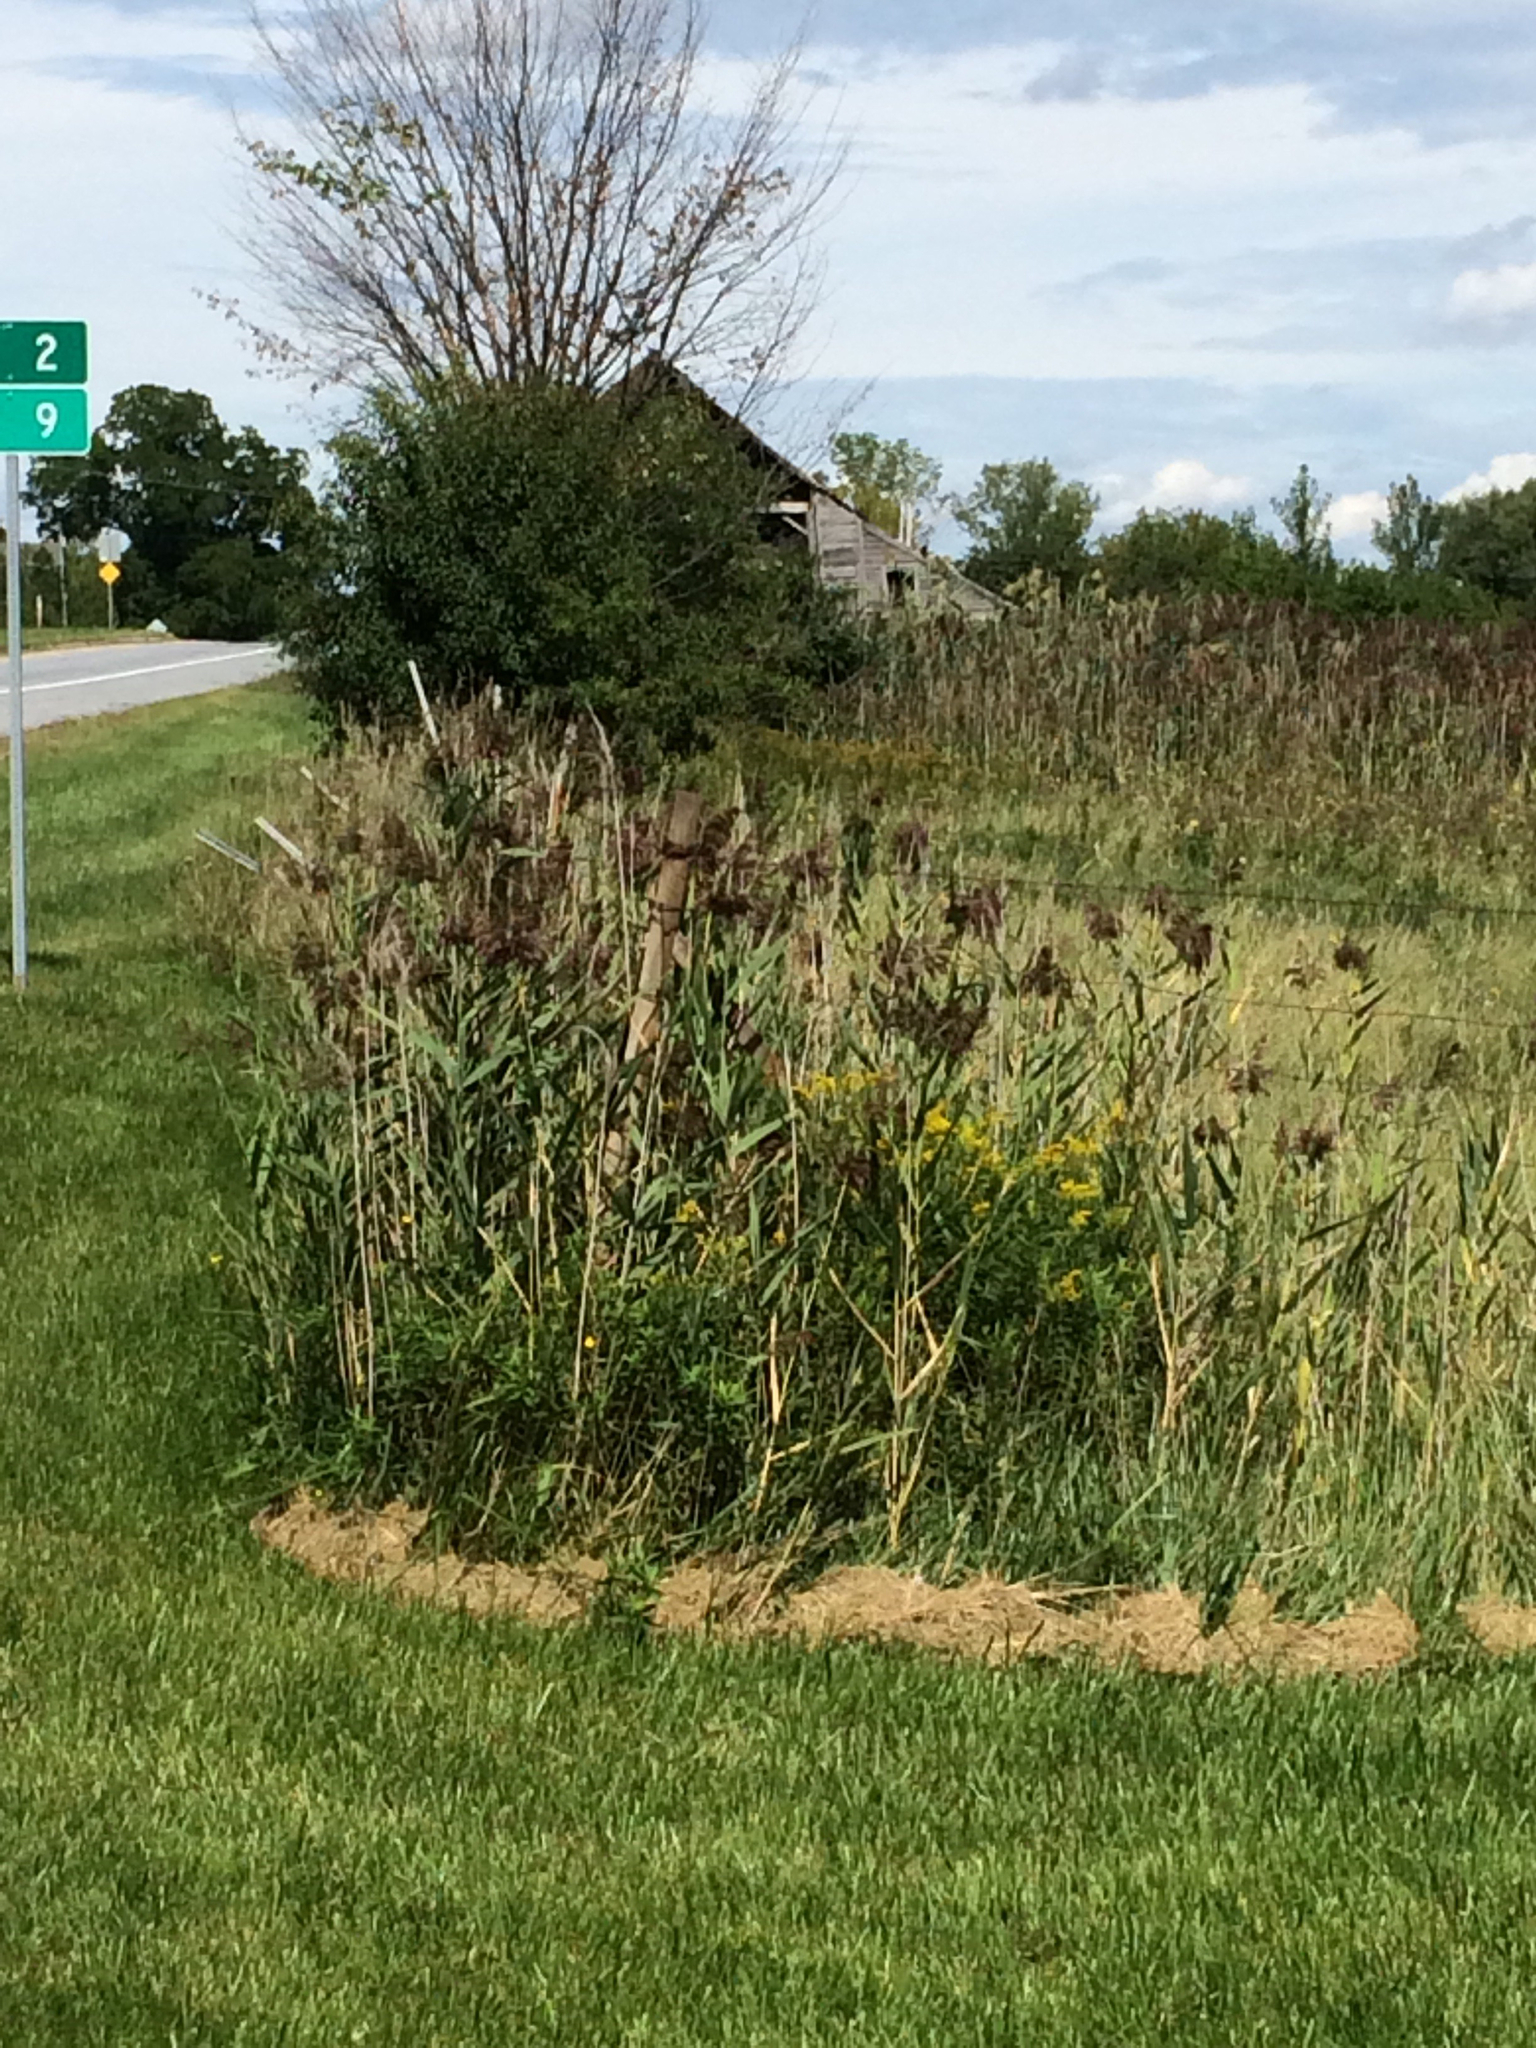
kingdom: Plantae
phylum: Tracheophyta
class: Liliopsida
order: Poales
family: Poaceae
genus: Phragmites
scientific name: Phragmites australis
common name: Common reed
